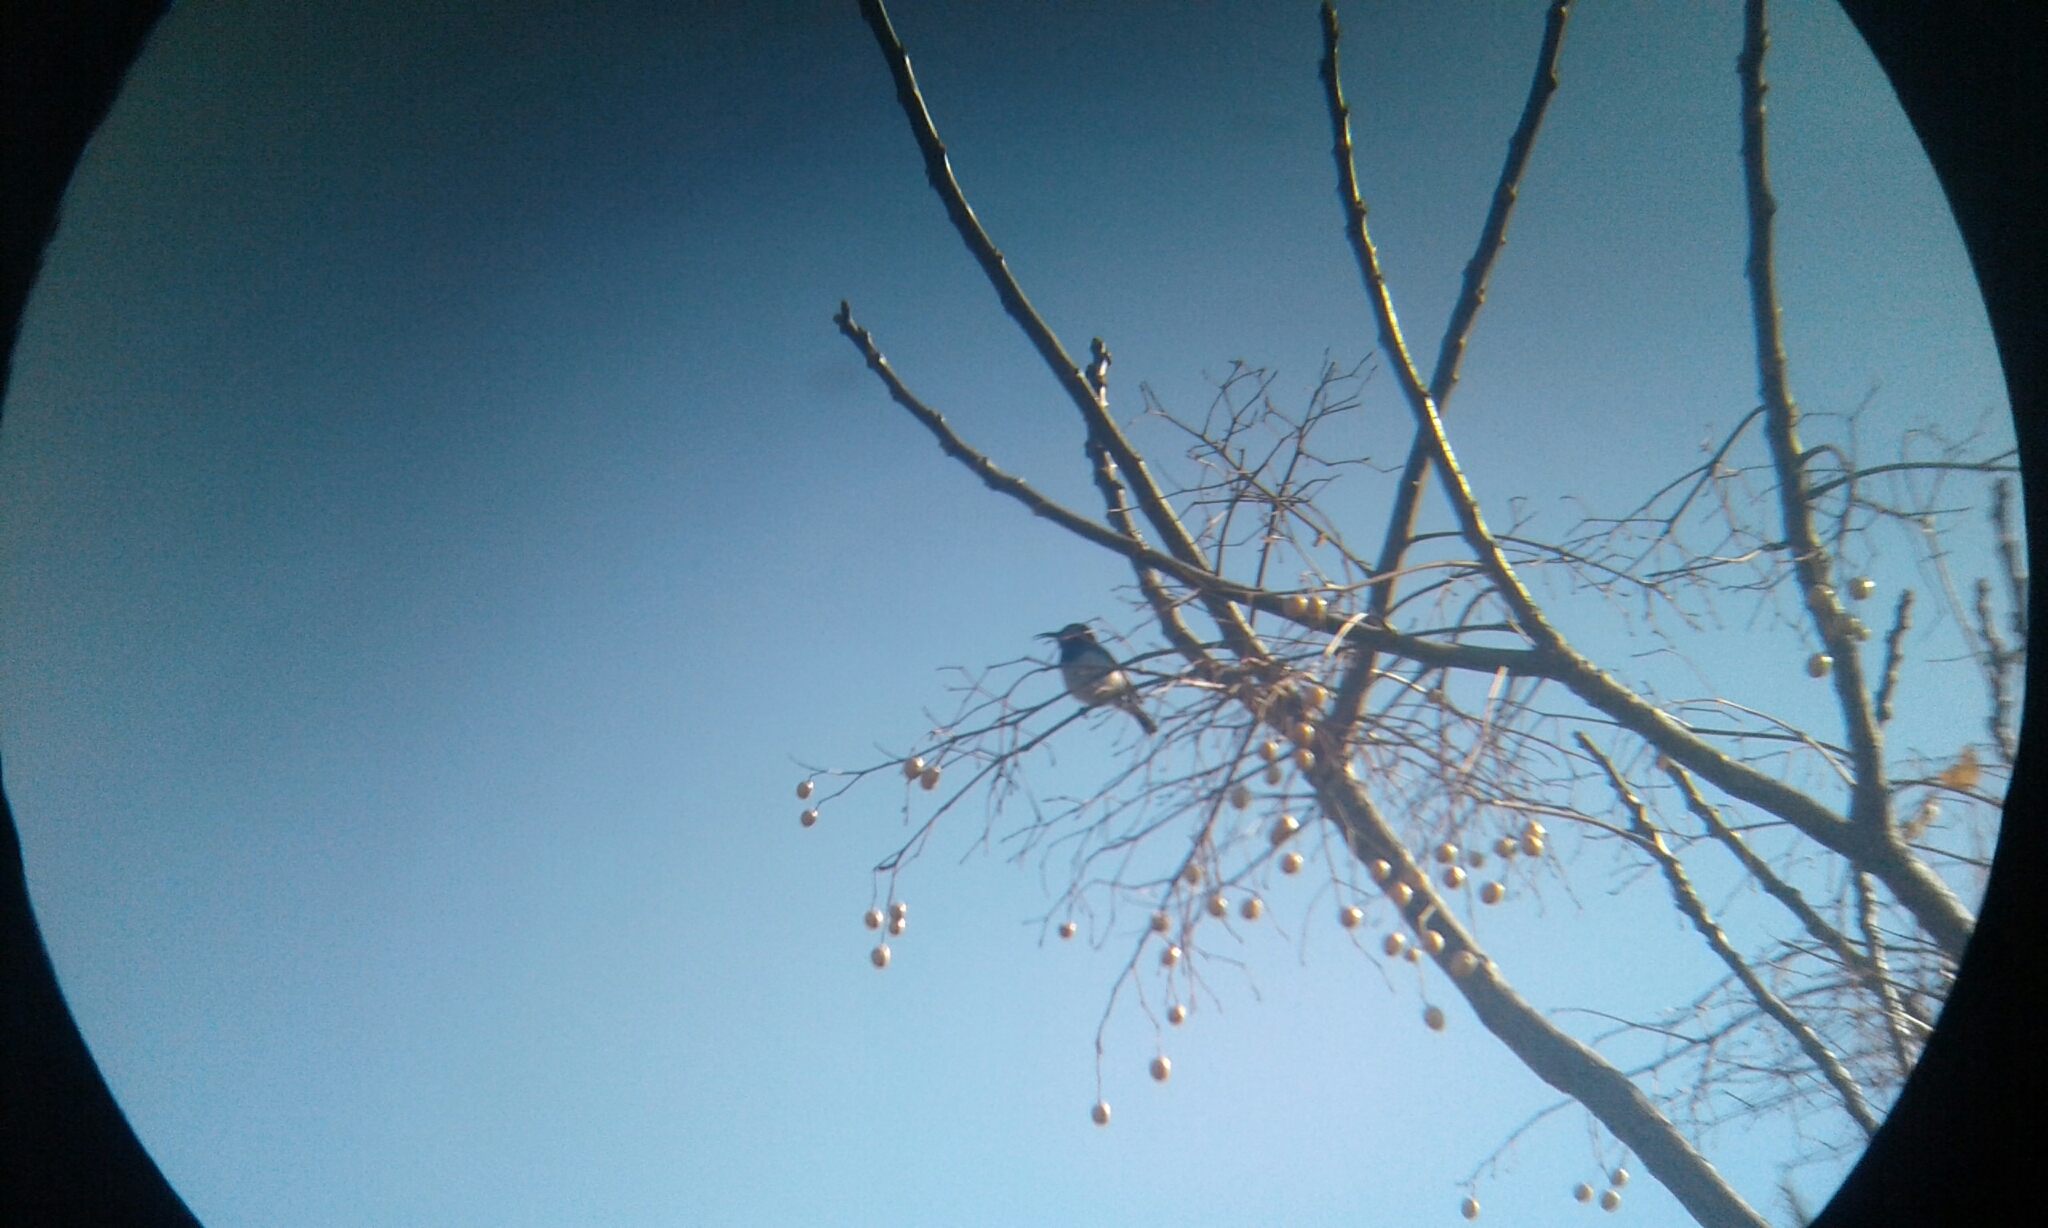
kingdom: Animalia
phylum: Chordata
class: Aves
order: Passeriformes
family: Nectariniidae
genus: Cinnyris
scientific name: Cinnyris talatala
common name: White-bellied sunbird
